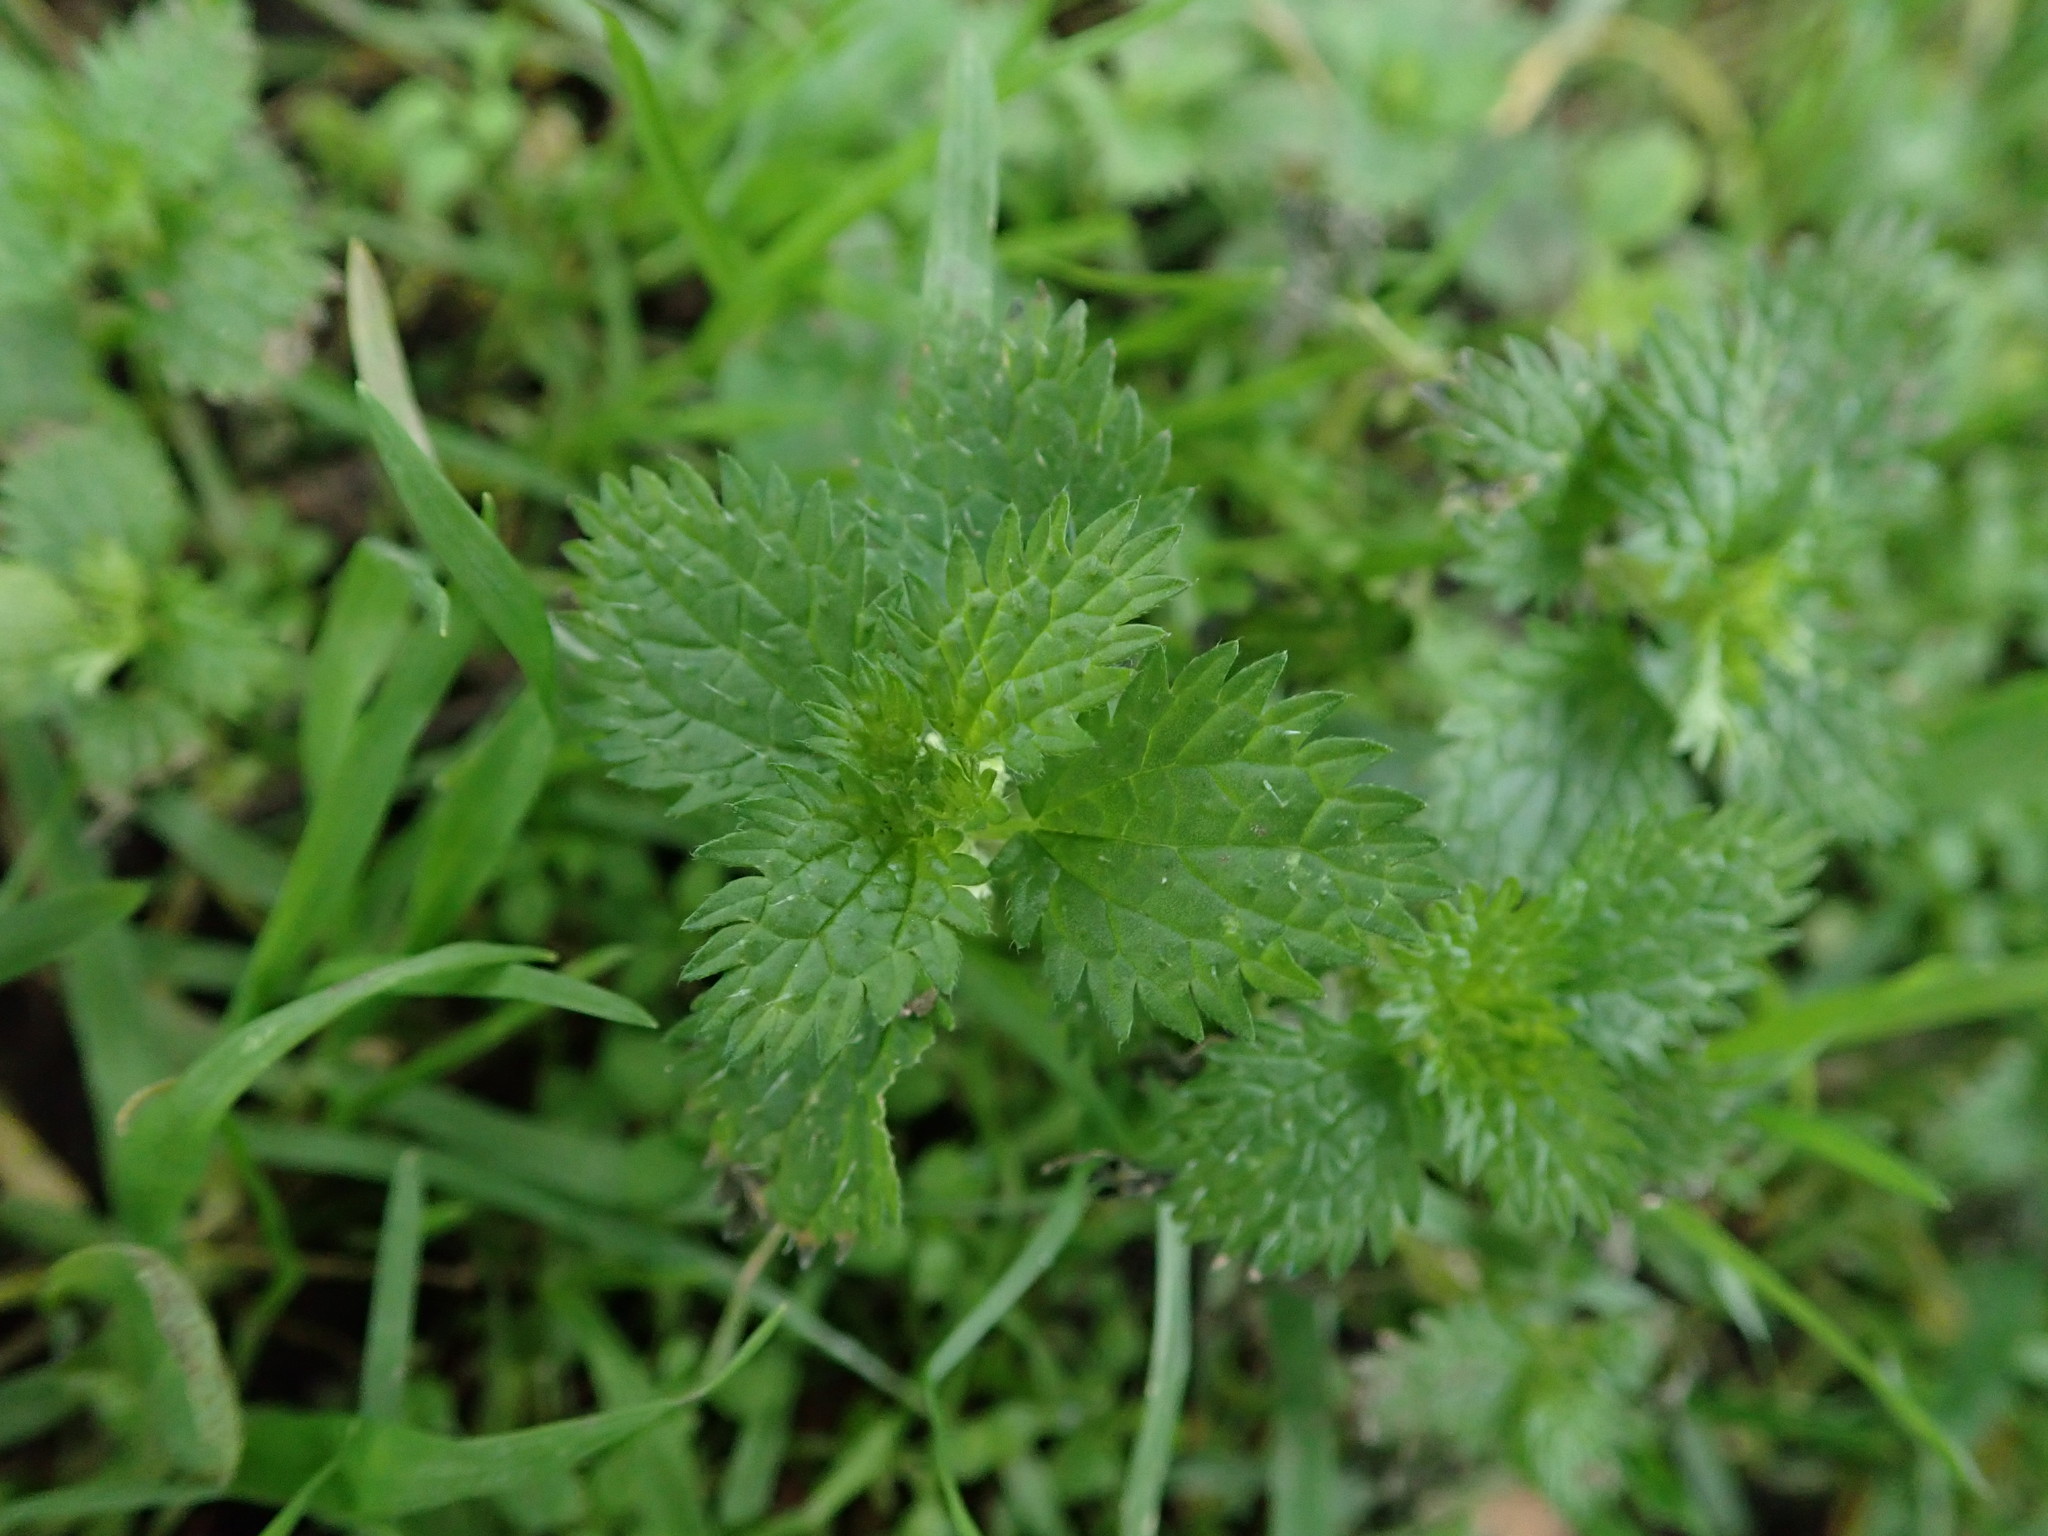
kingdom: Plantae
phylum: Tracheophyta
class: Magnoliopsida
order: Rosales
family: Urticaceae
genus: Urtica
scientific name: Urtica urens
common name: Dwarf nettle
